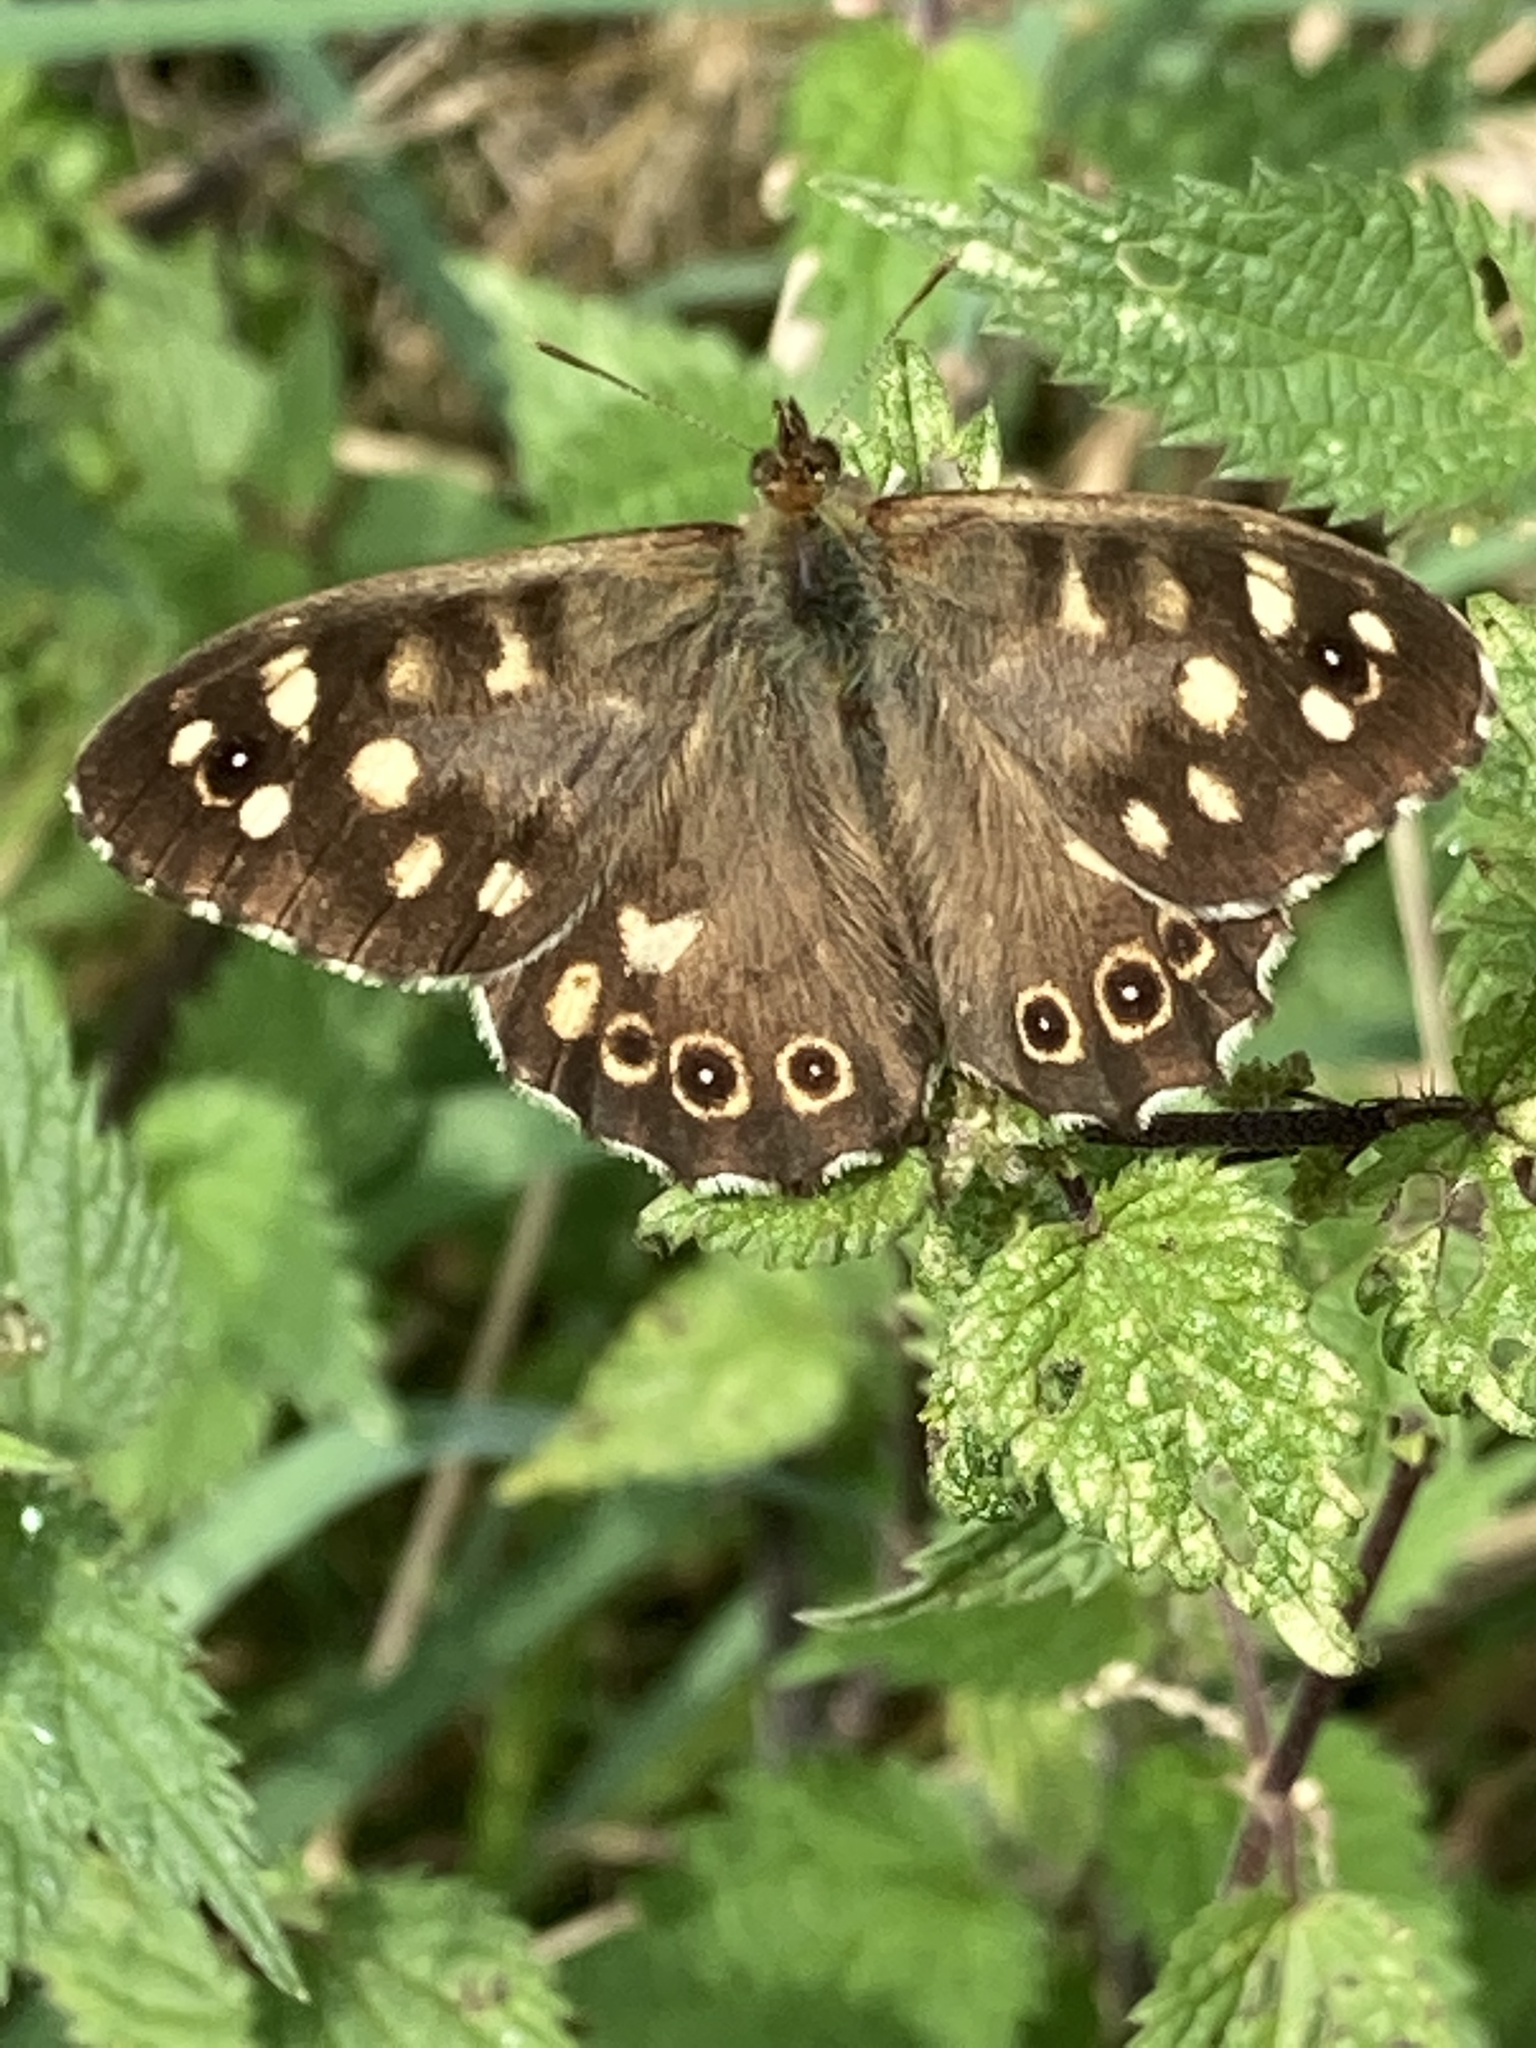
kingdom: Animalia
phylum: Arthropoda
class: Insecta
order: Lepidoptera
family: Nymphalidae
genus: Pararge
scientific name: Pararge aegeria
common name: Speckled wood
